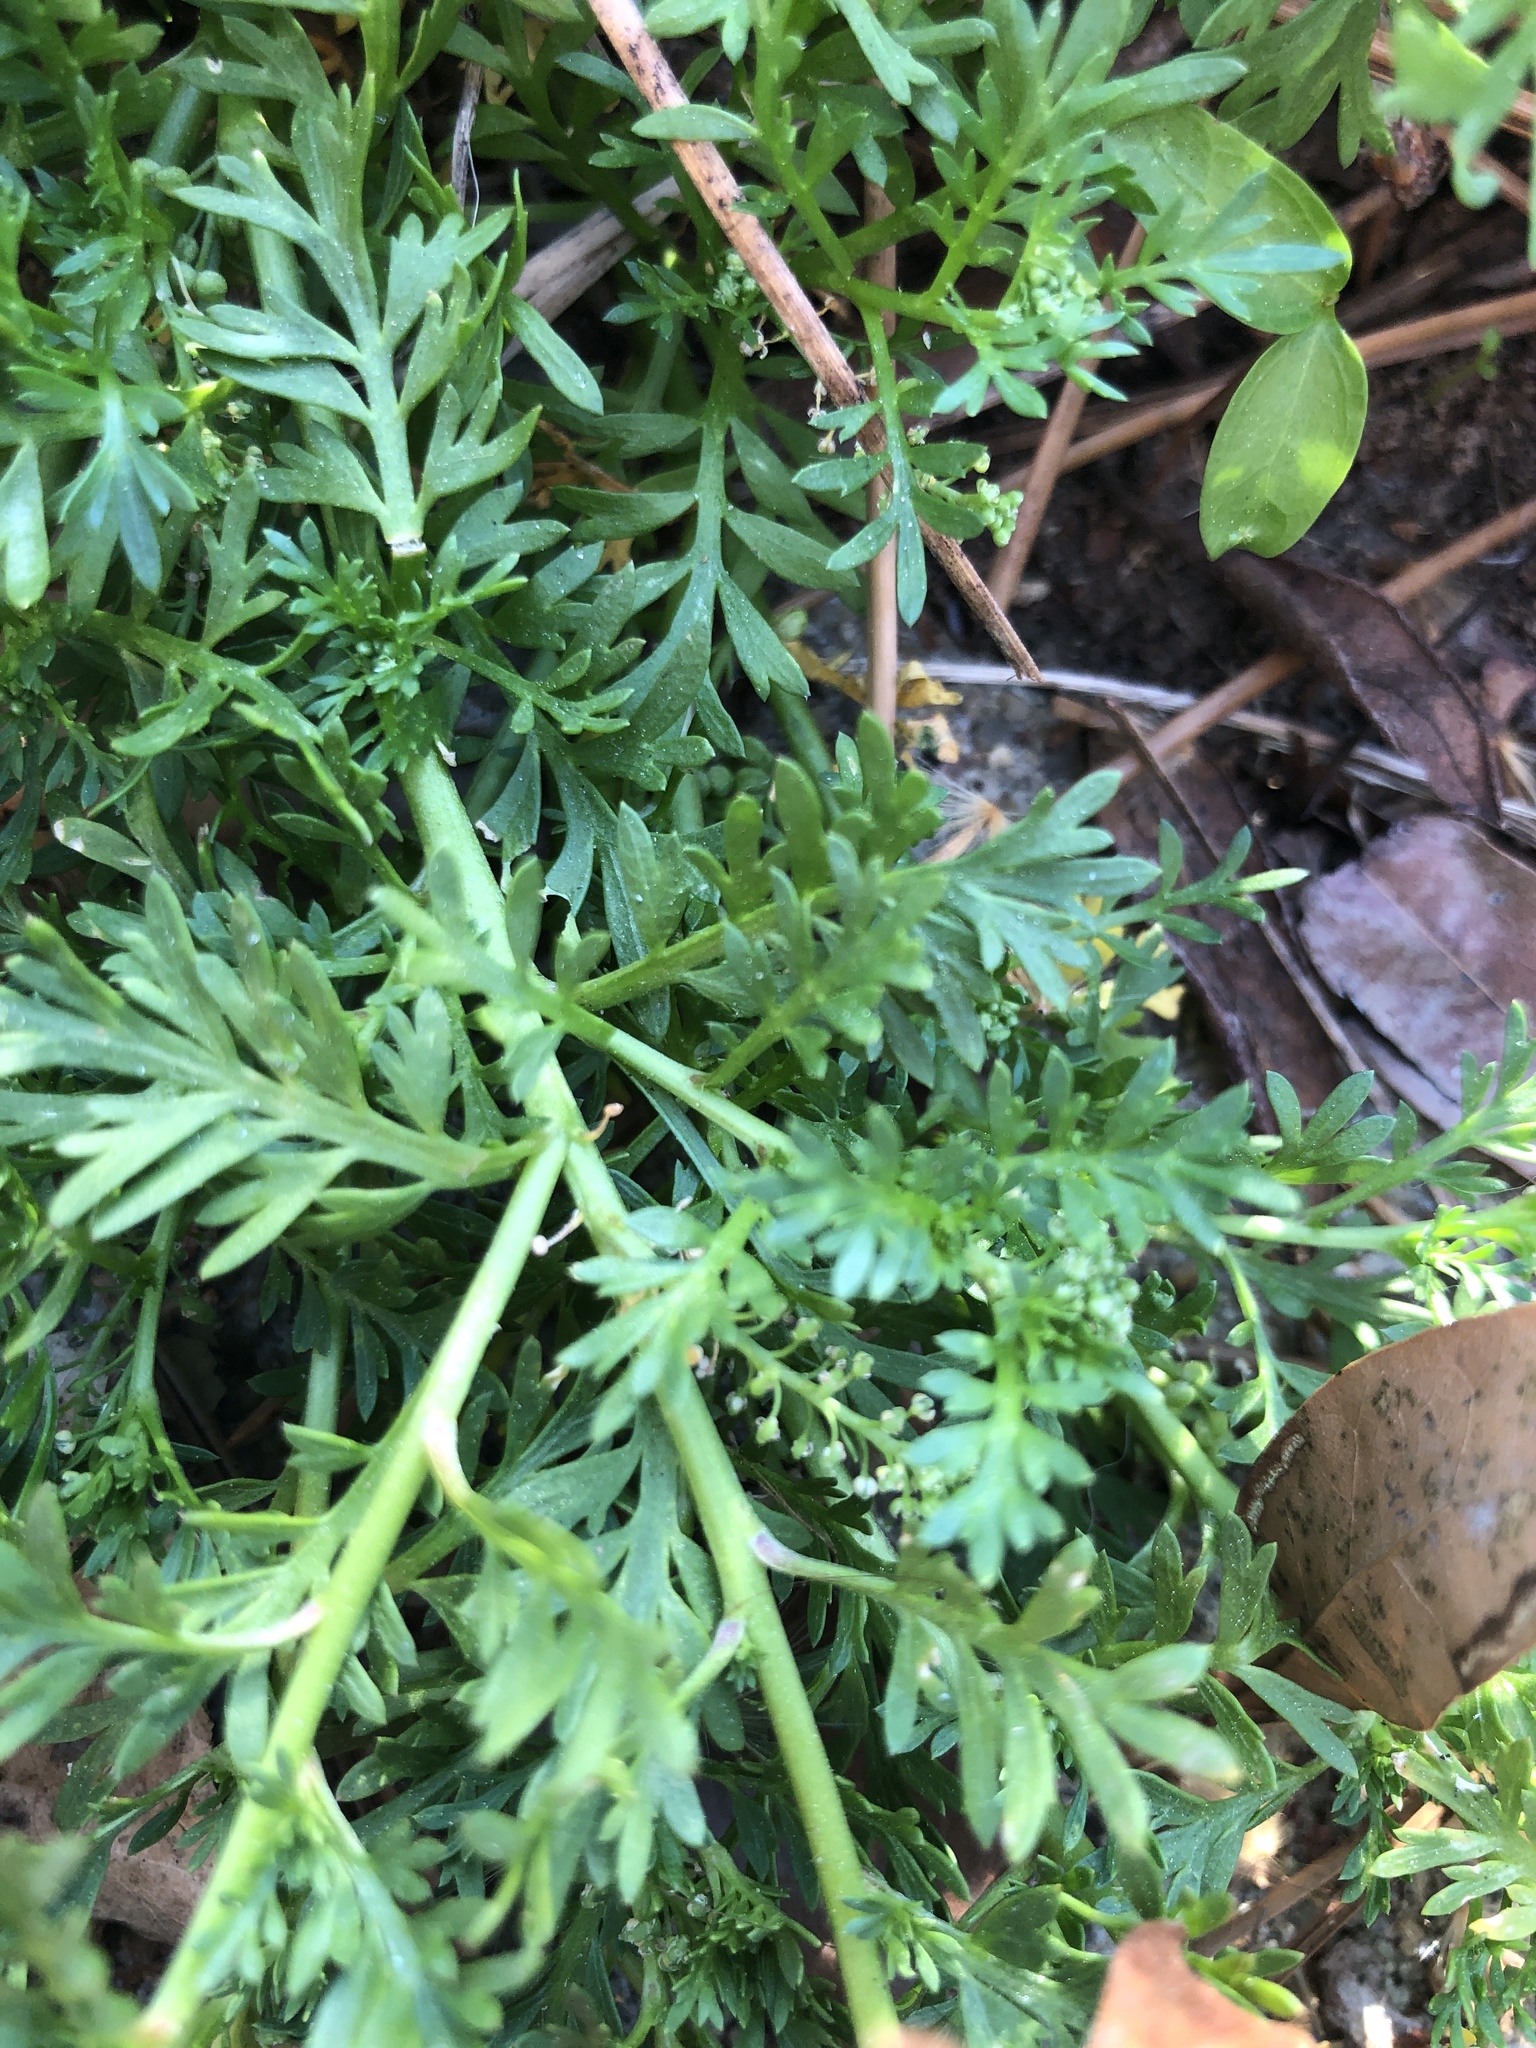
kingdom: Plantae
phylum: Tracheophyta
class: Magnoliopsida
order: Brassicales
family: Brassicaceae
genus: Lepidium
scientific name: Lepidium didymum
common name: Lesser swinecress
